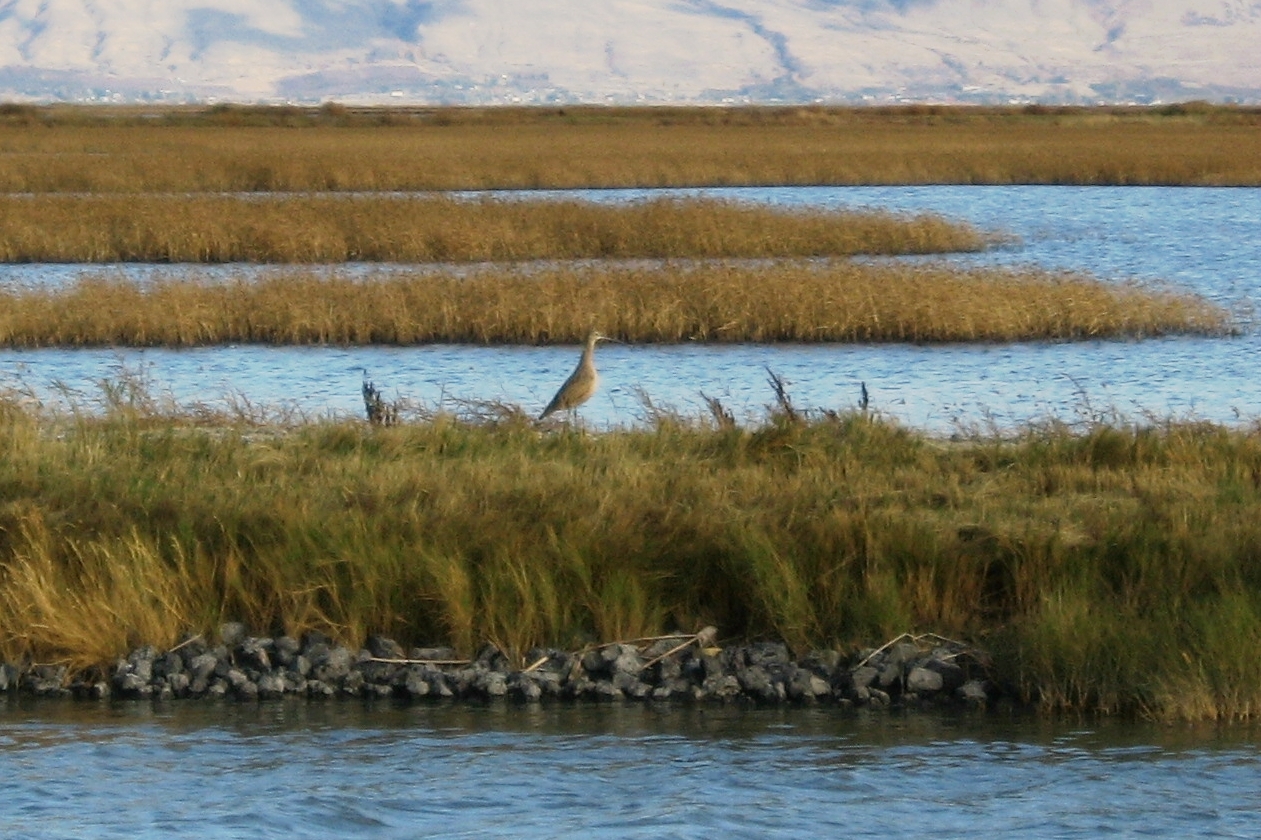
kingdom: Animalia
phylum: Chordata
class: Aves
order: Charadriiformes
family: Scolopacidae
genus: Numenius
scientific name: Numenius americanus
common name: Long-billed curlew
